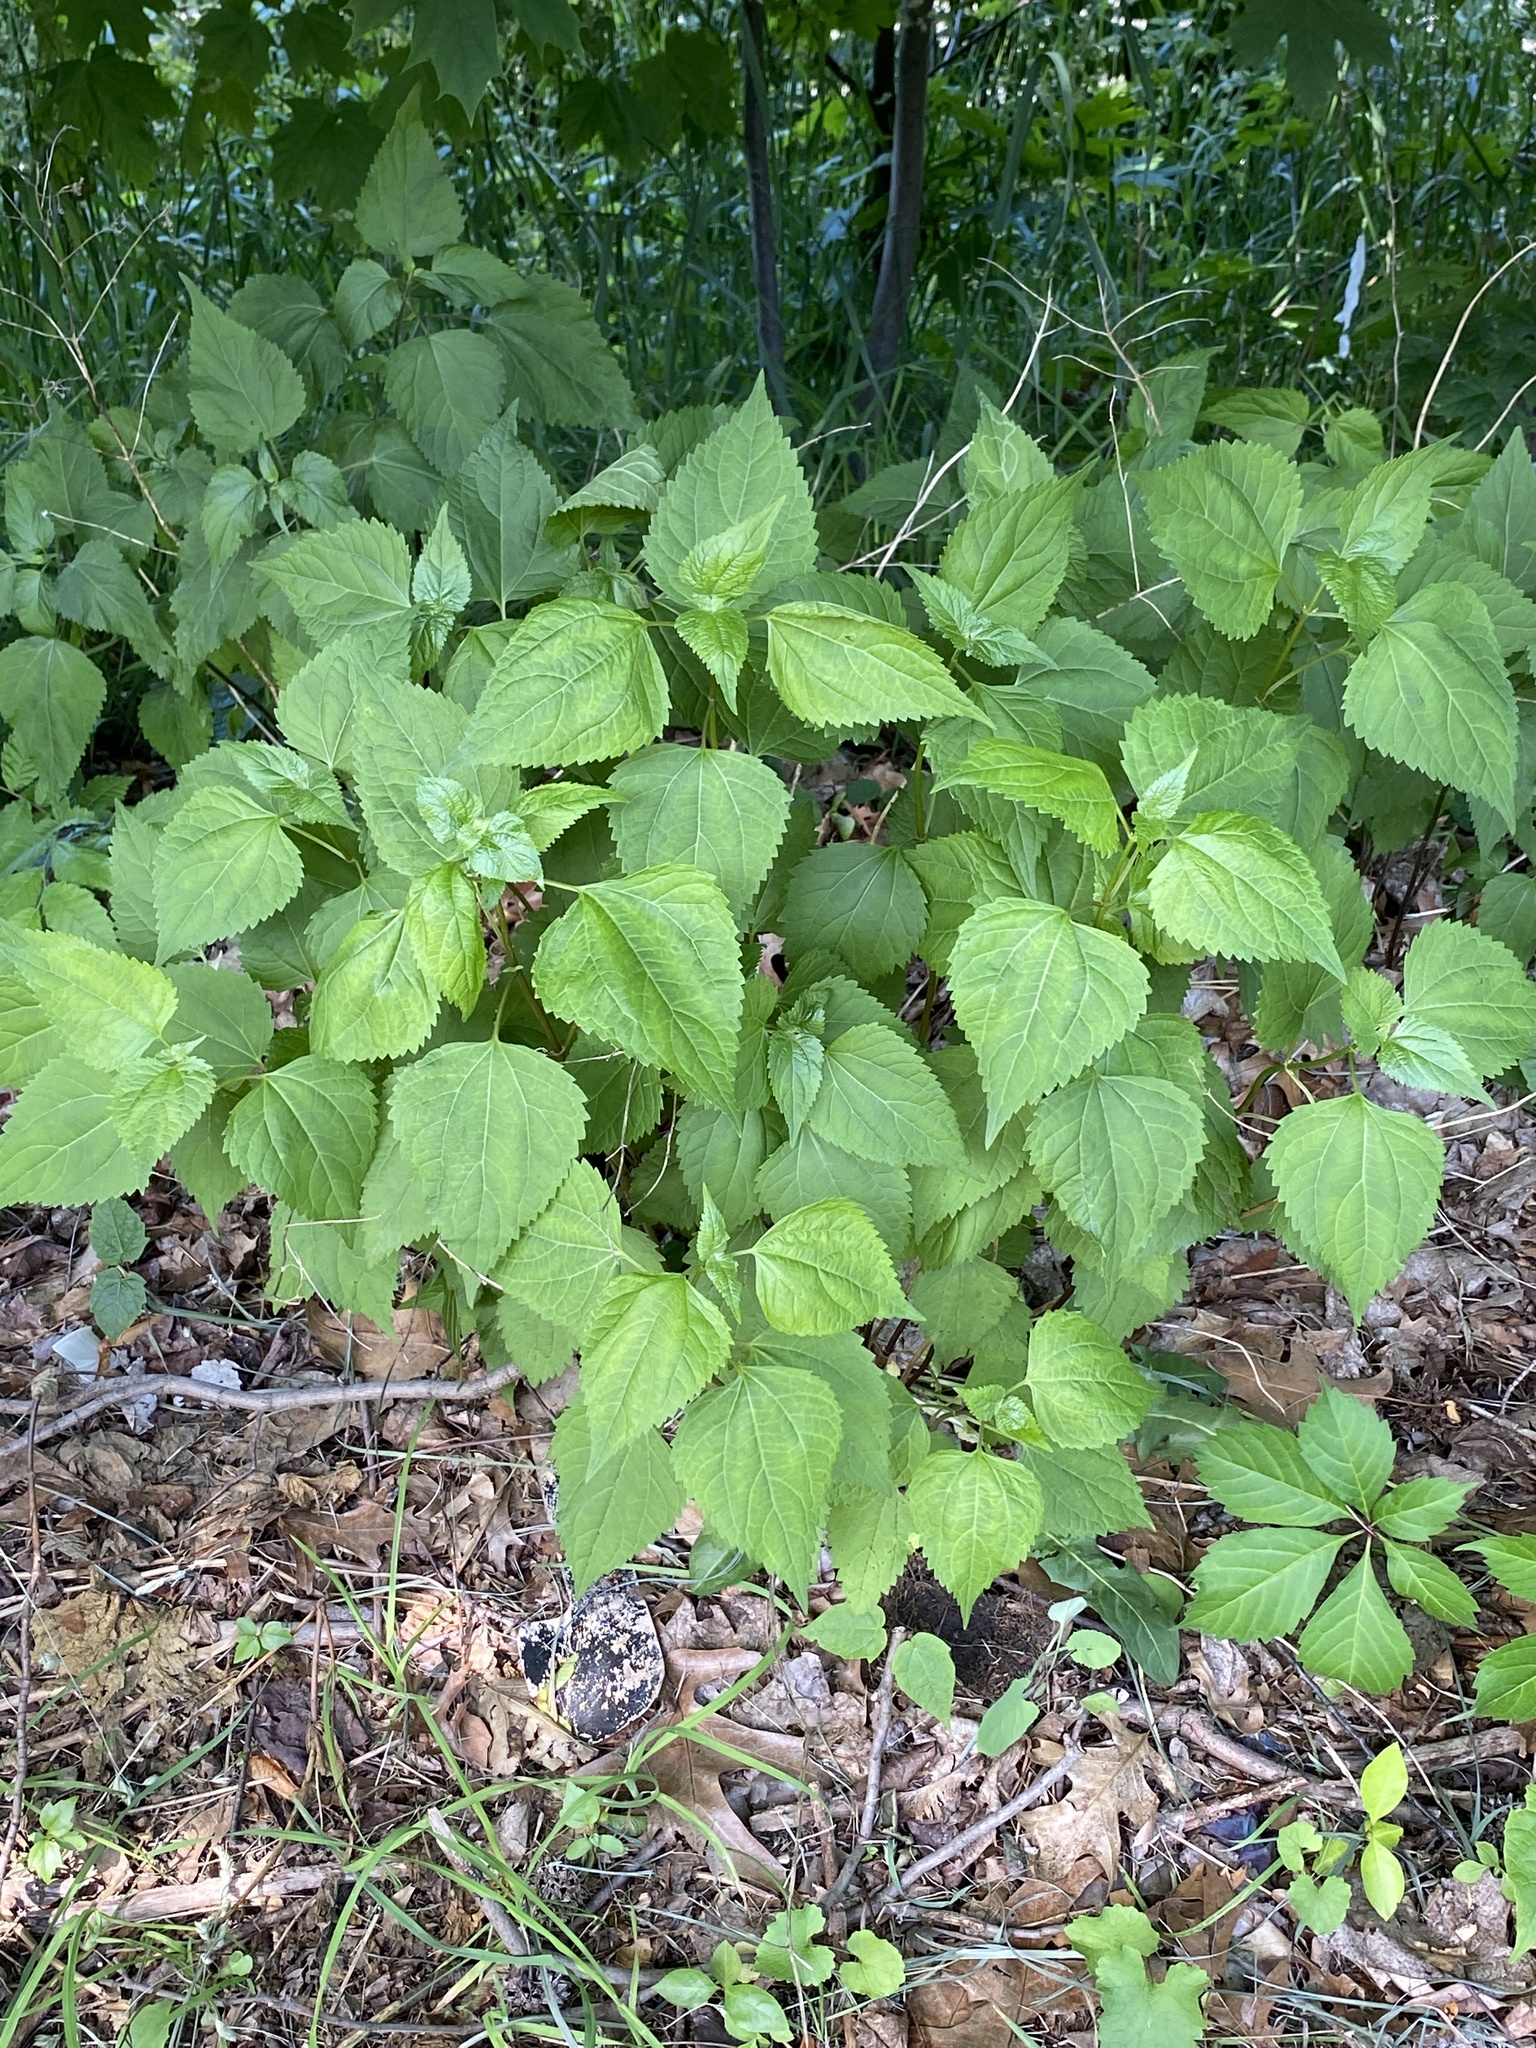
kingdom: Plantae
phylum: Tracheophyta
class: Magnoliopsida
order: Asterales
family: Asteraceae
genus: Ageratina
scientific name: Ageratina altissima
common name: White snakeroot
